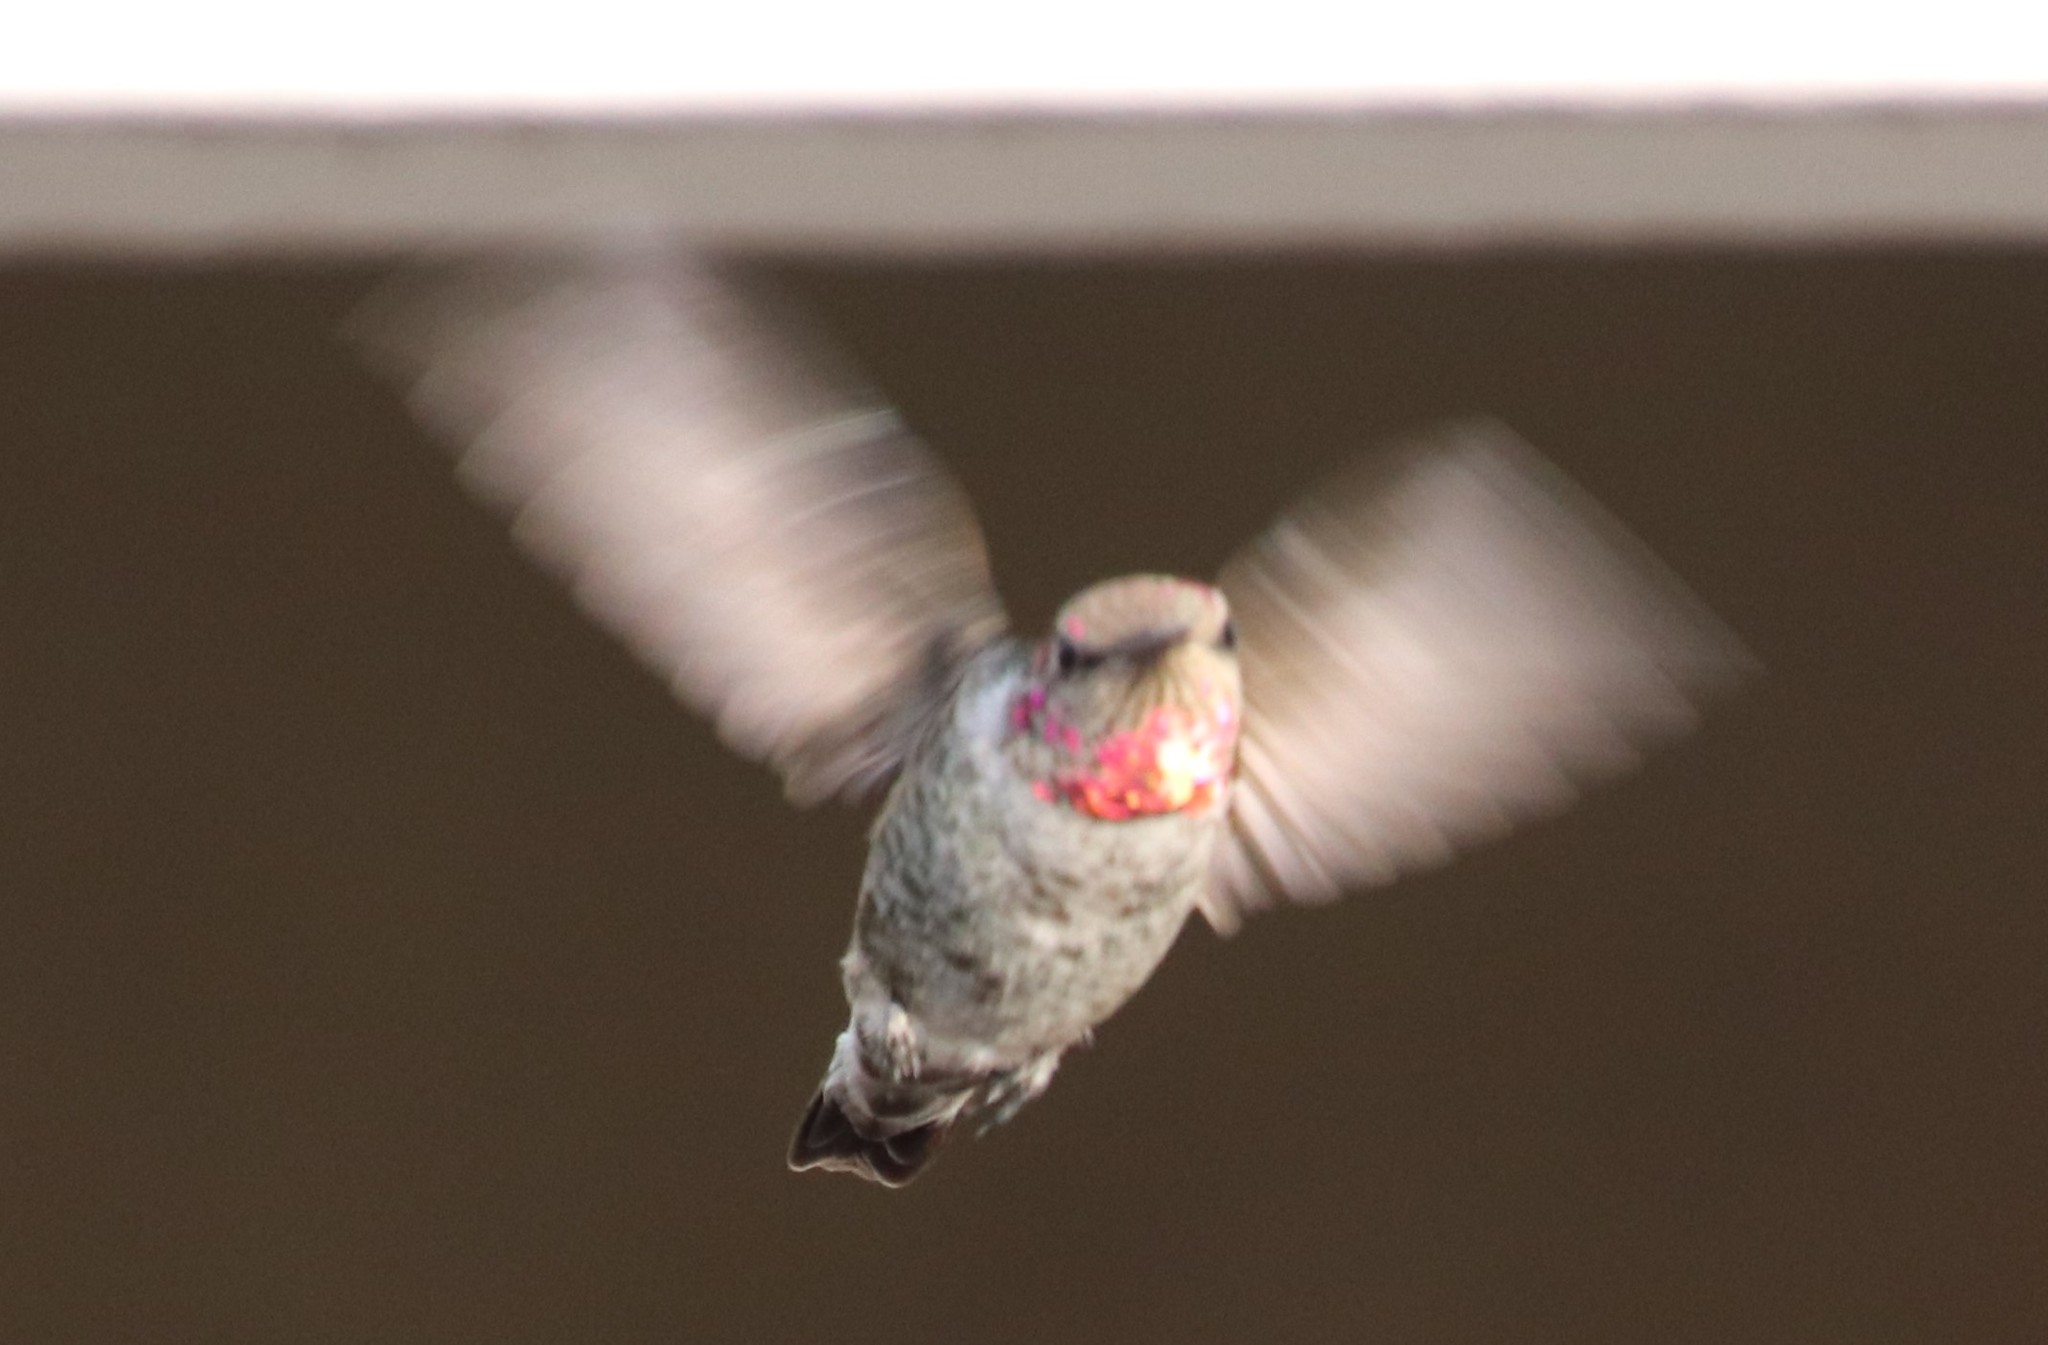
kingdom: Animalia
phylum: Chordata
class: Aves
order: Apodiformes
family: Trochilidae
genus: Calypte
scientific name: Calypte anna
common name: Anna's hummingbird
